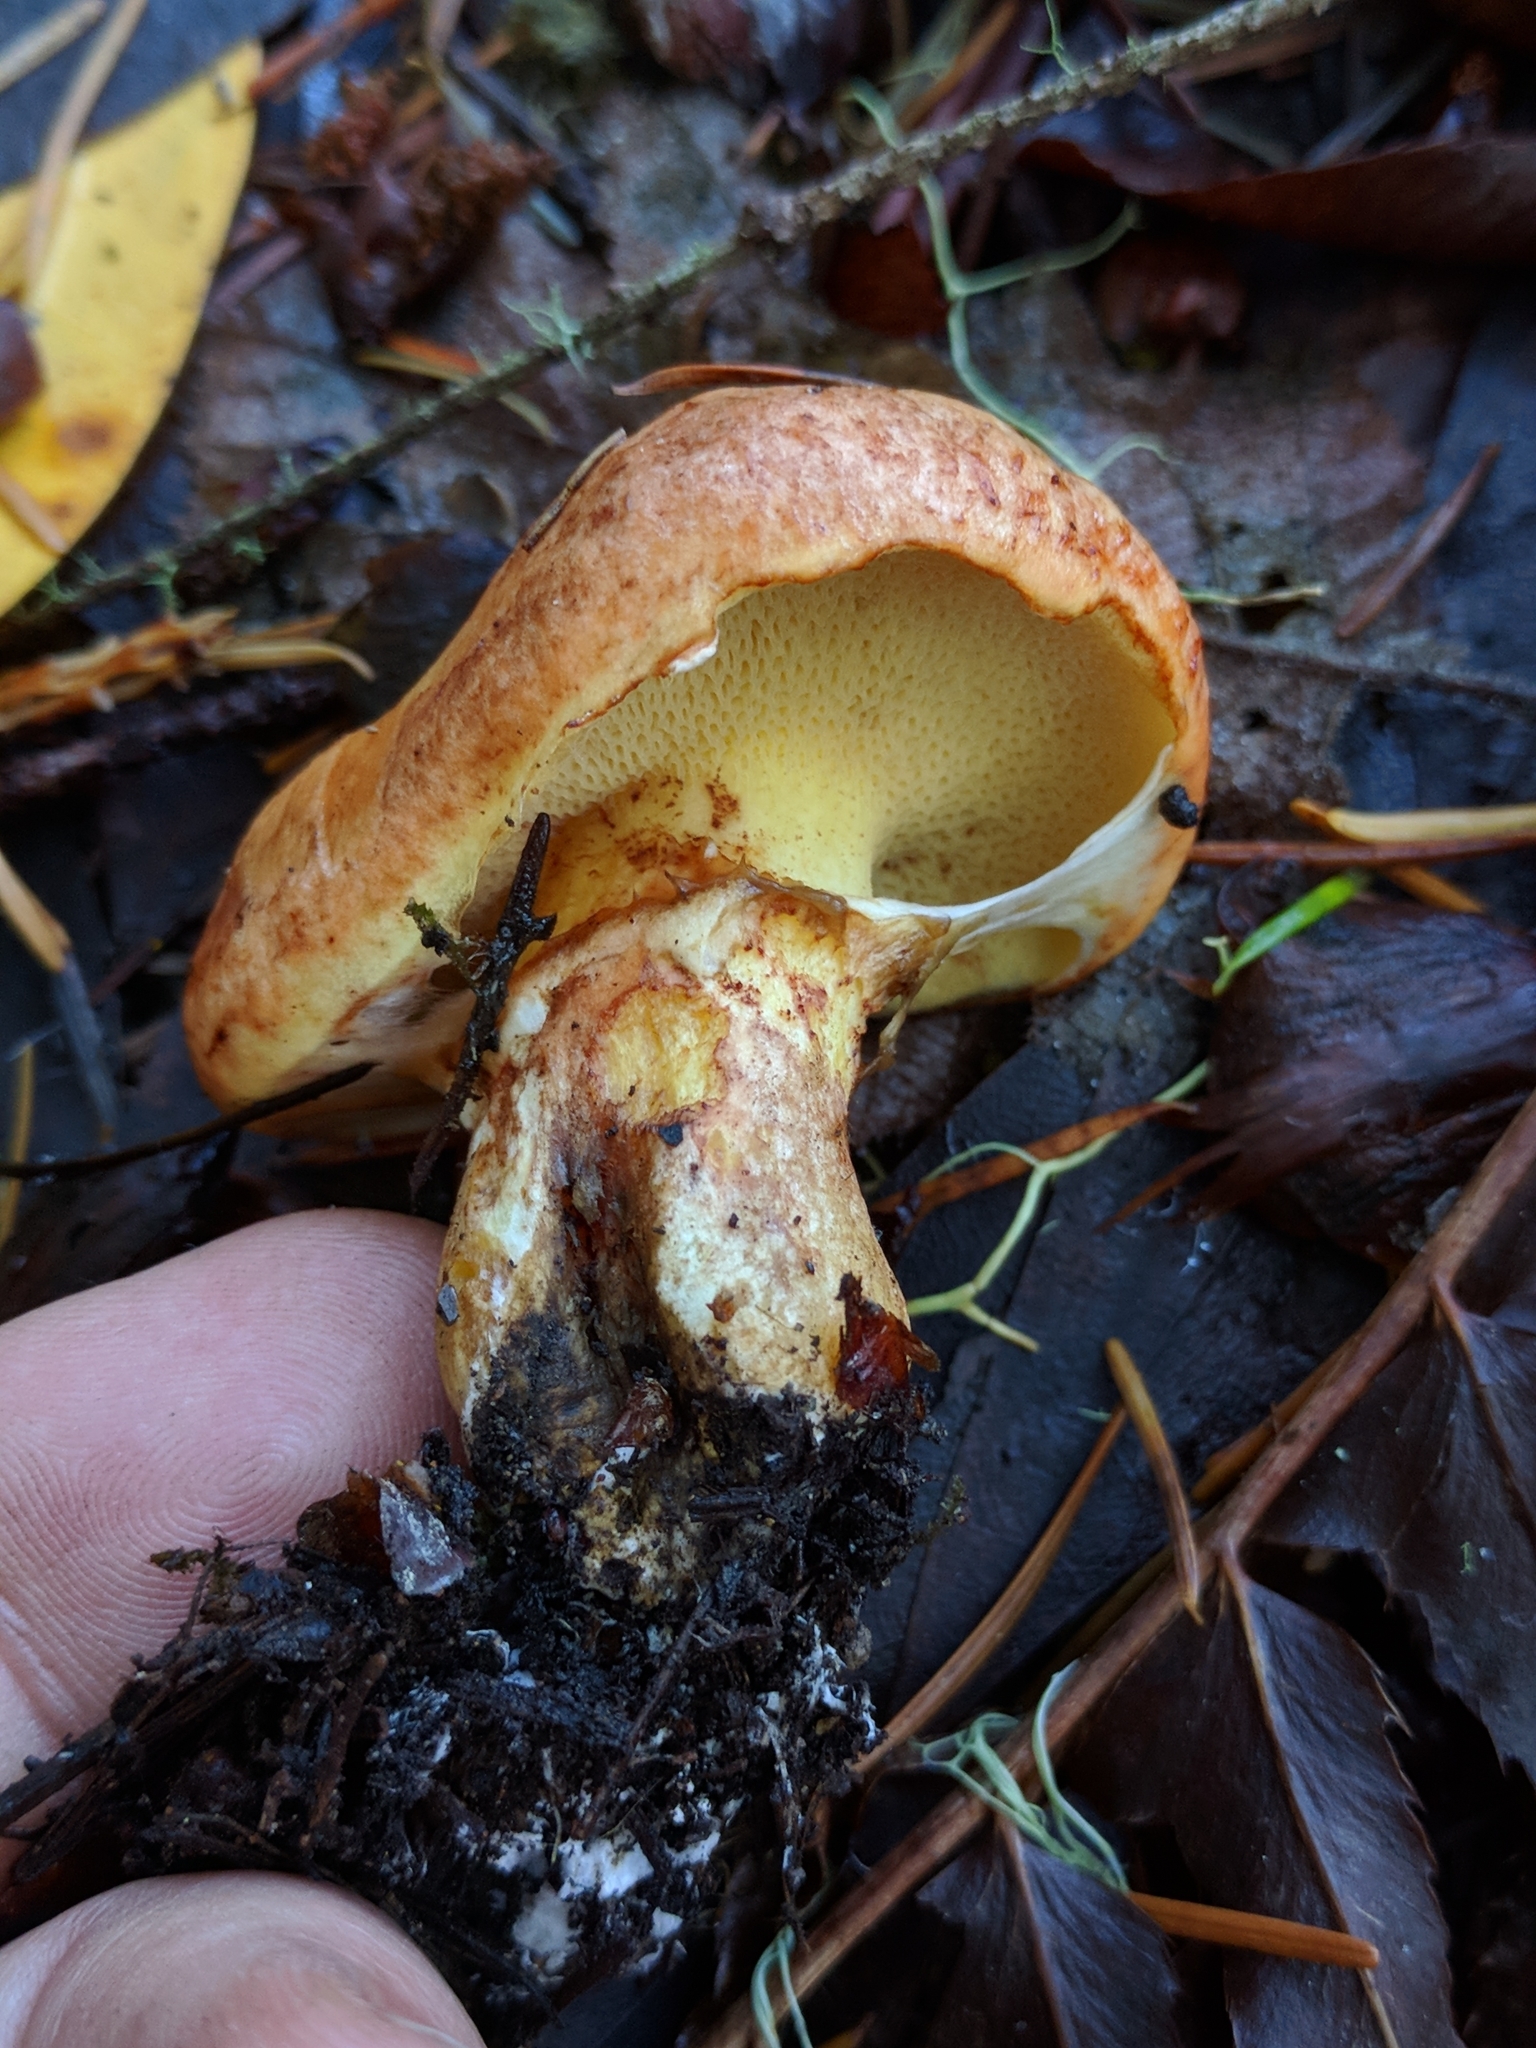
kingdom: Fungi
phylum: Basidiomycota
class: Agaricomycetes
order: Boletales
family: Suillaceae
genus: Suillus
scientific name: Suillus caerulescens
